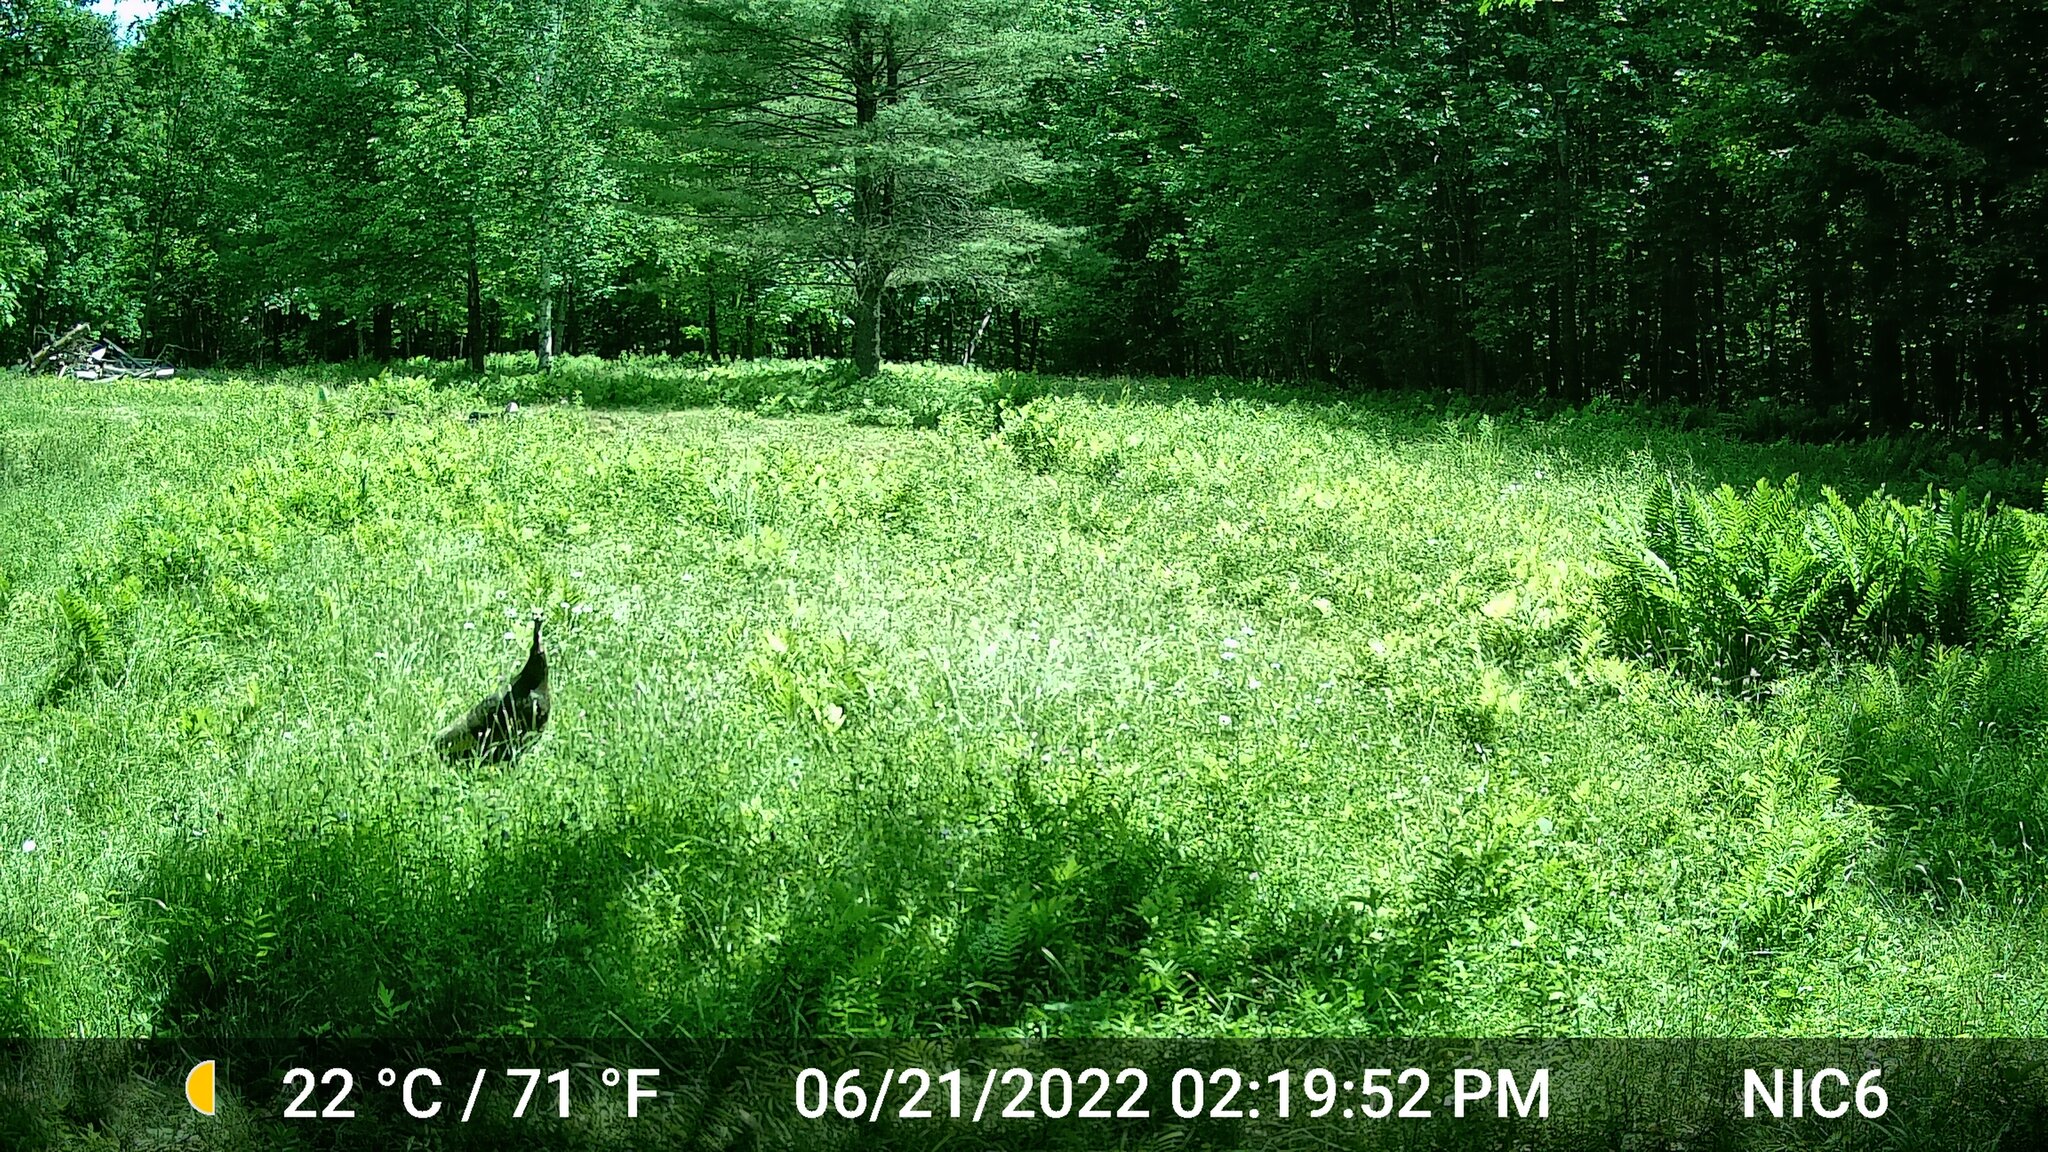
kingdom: Animalia
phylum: Chordata
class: Aves
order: Galliformes
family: Phasianidae
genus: Meleagris
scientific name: Meleagris gallopavo
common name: Wild turkey
